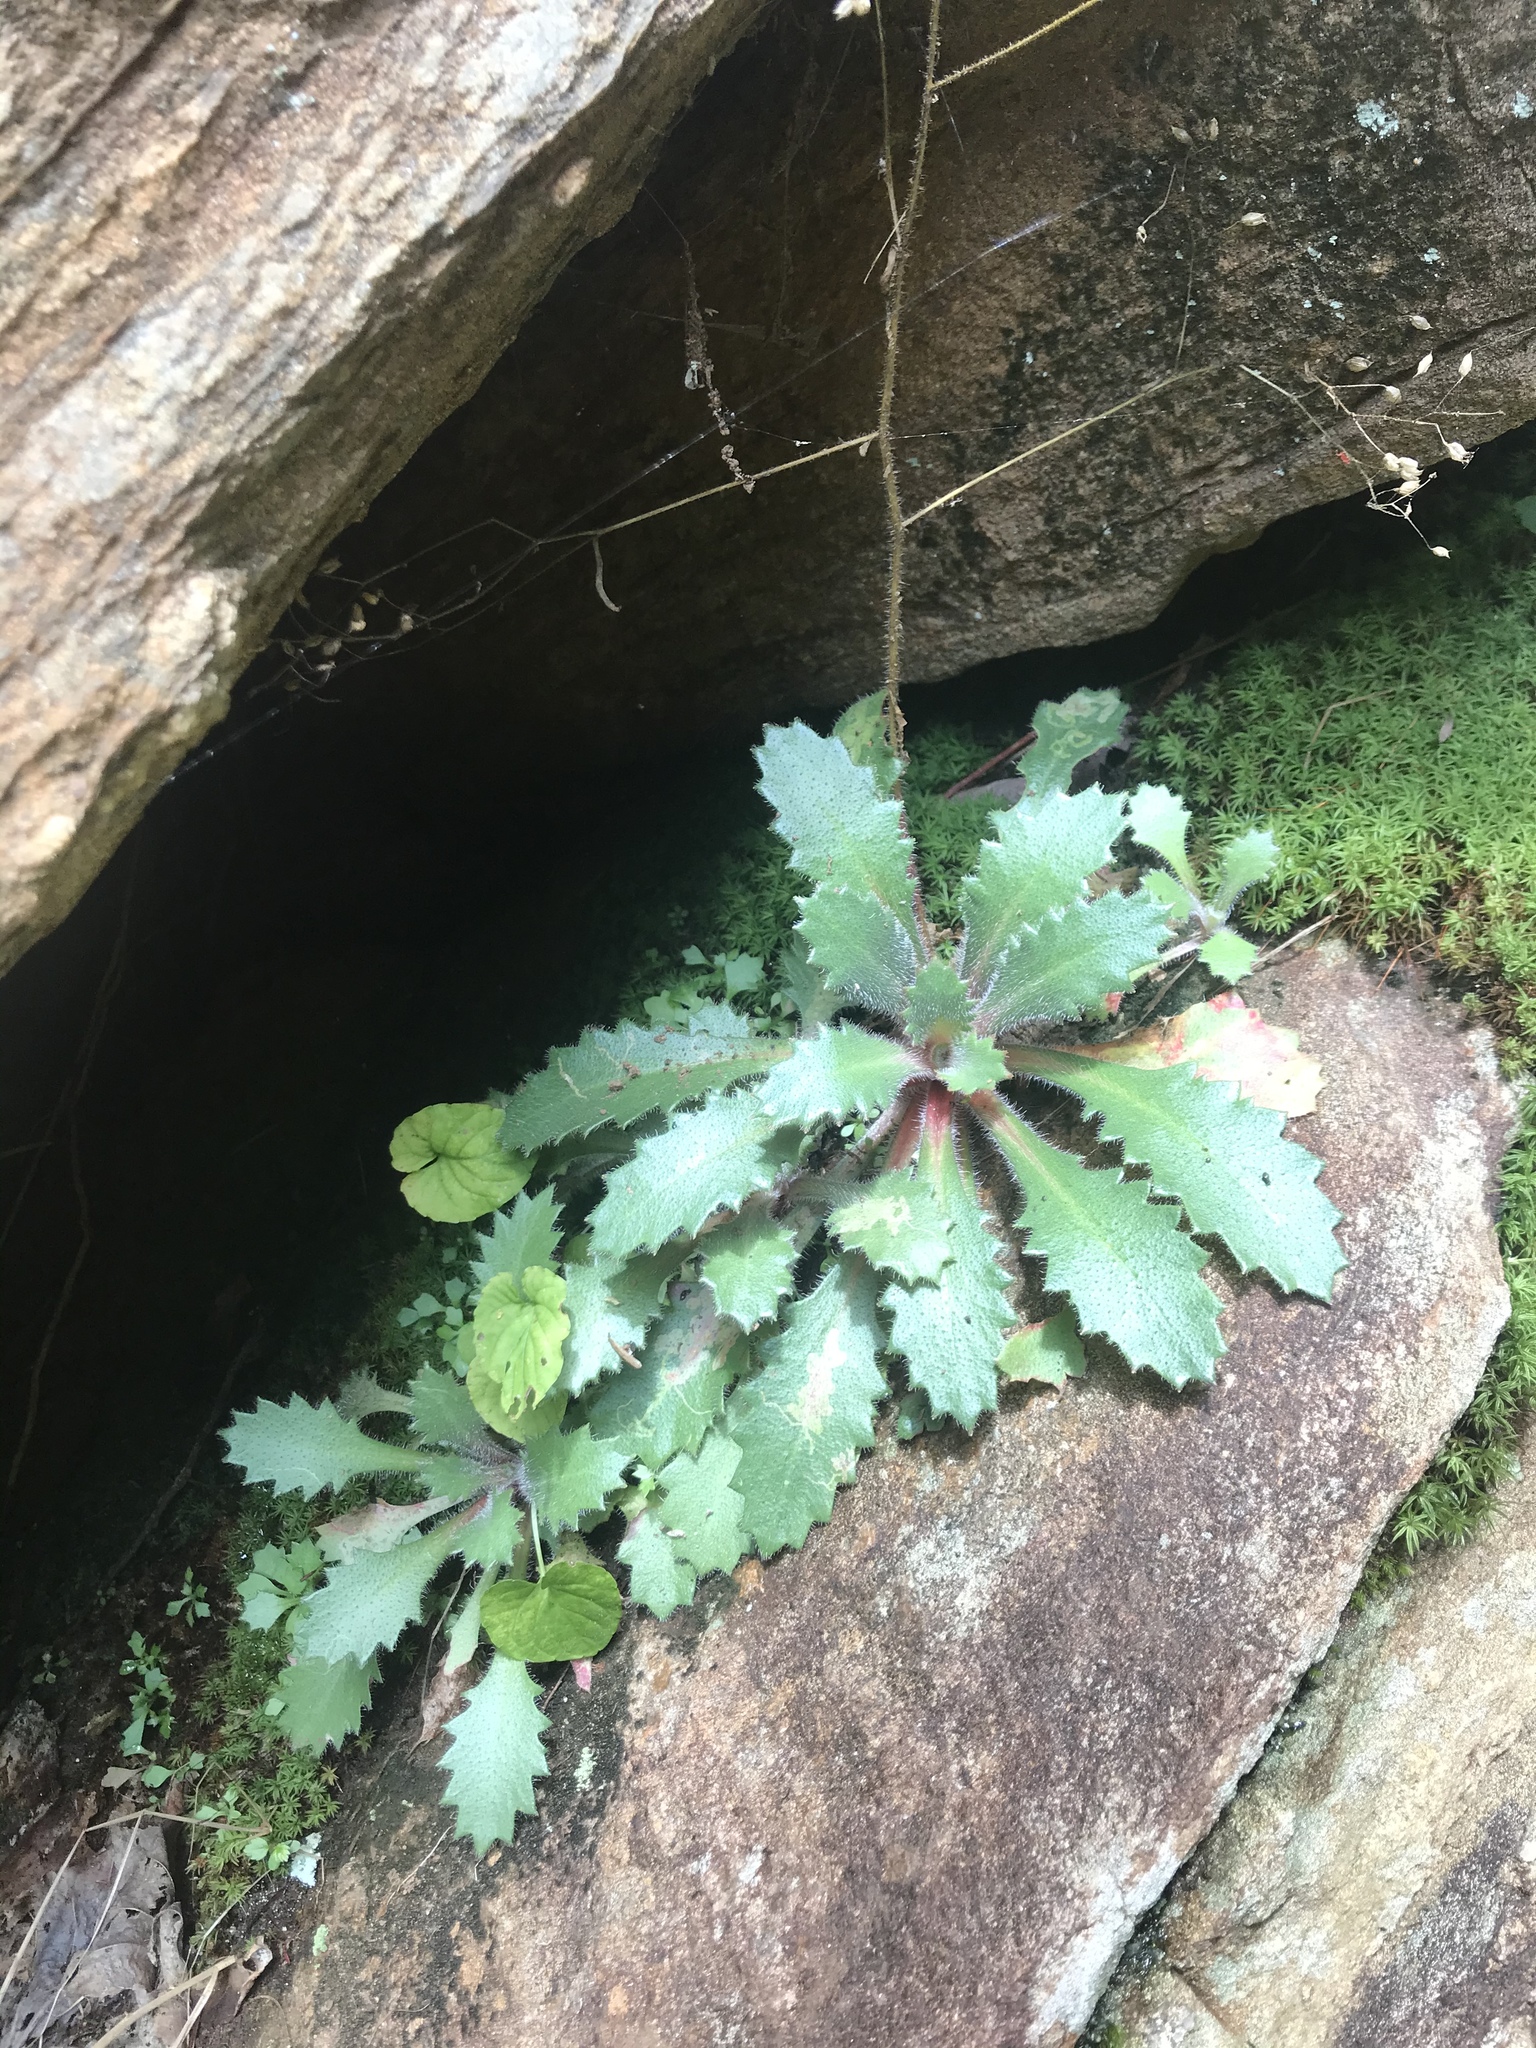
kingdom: Plantae
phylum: Tracheophyta
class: Magnoliopsida
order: Saxifragales
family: Saxifragaceae
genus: Micranthes
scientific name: Micranthes petiolaris
